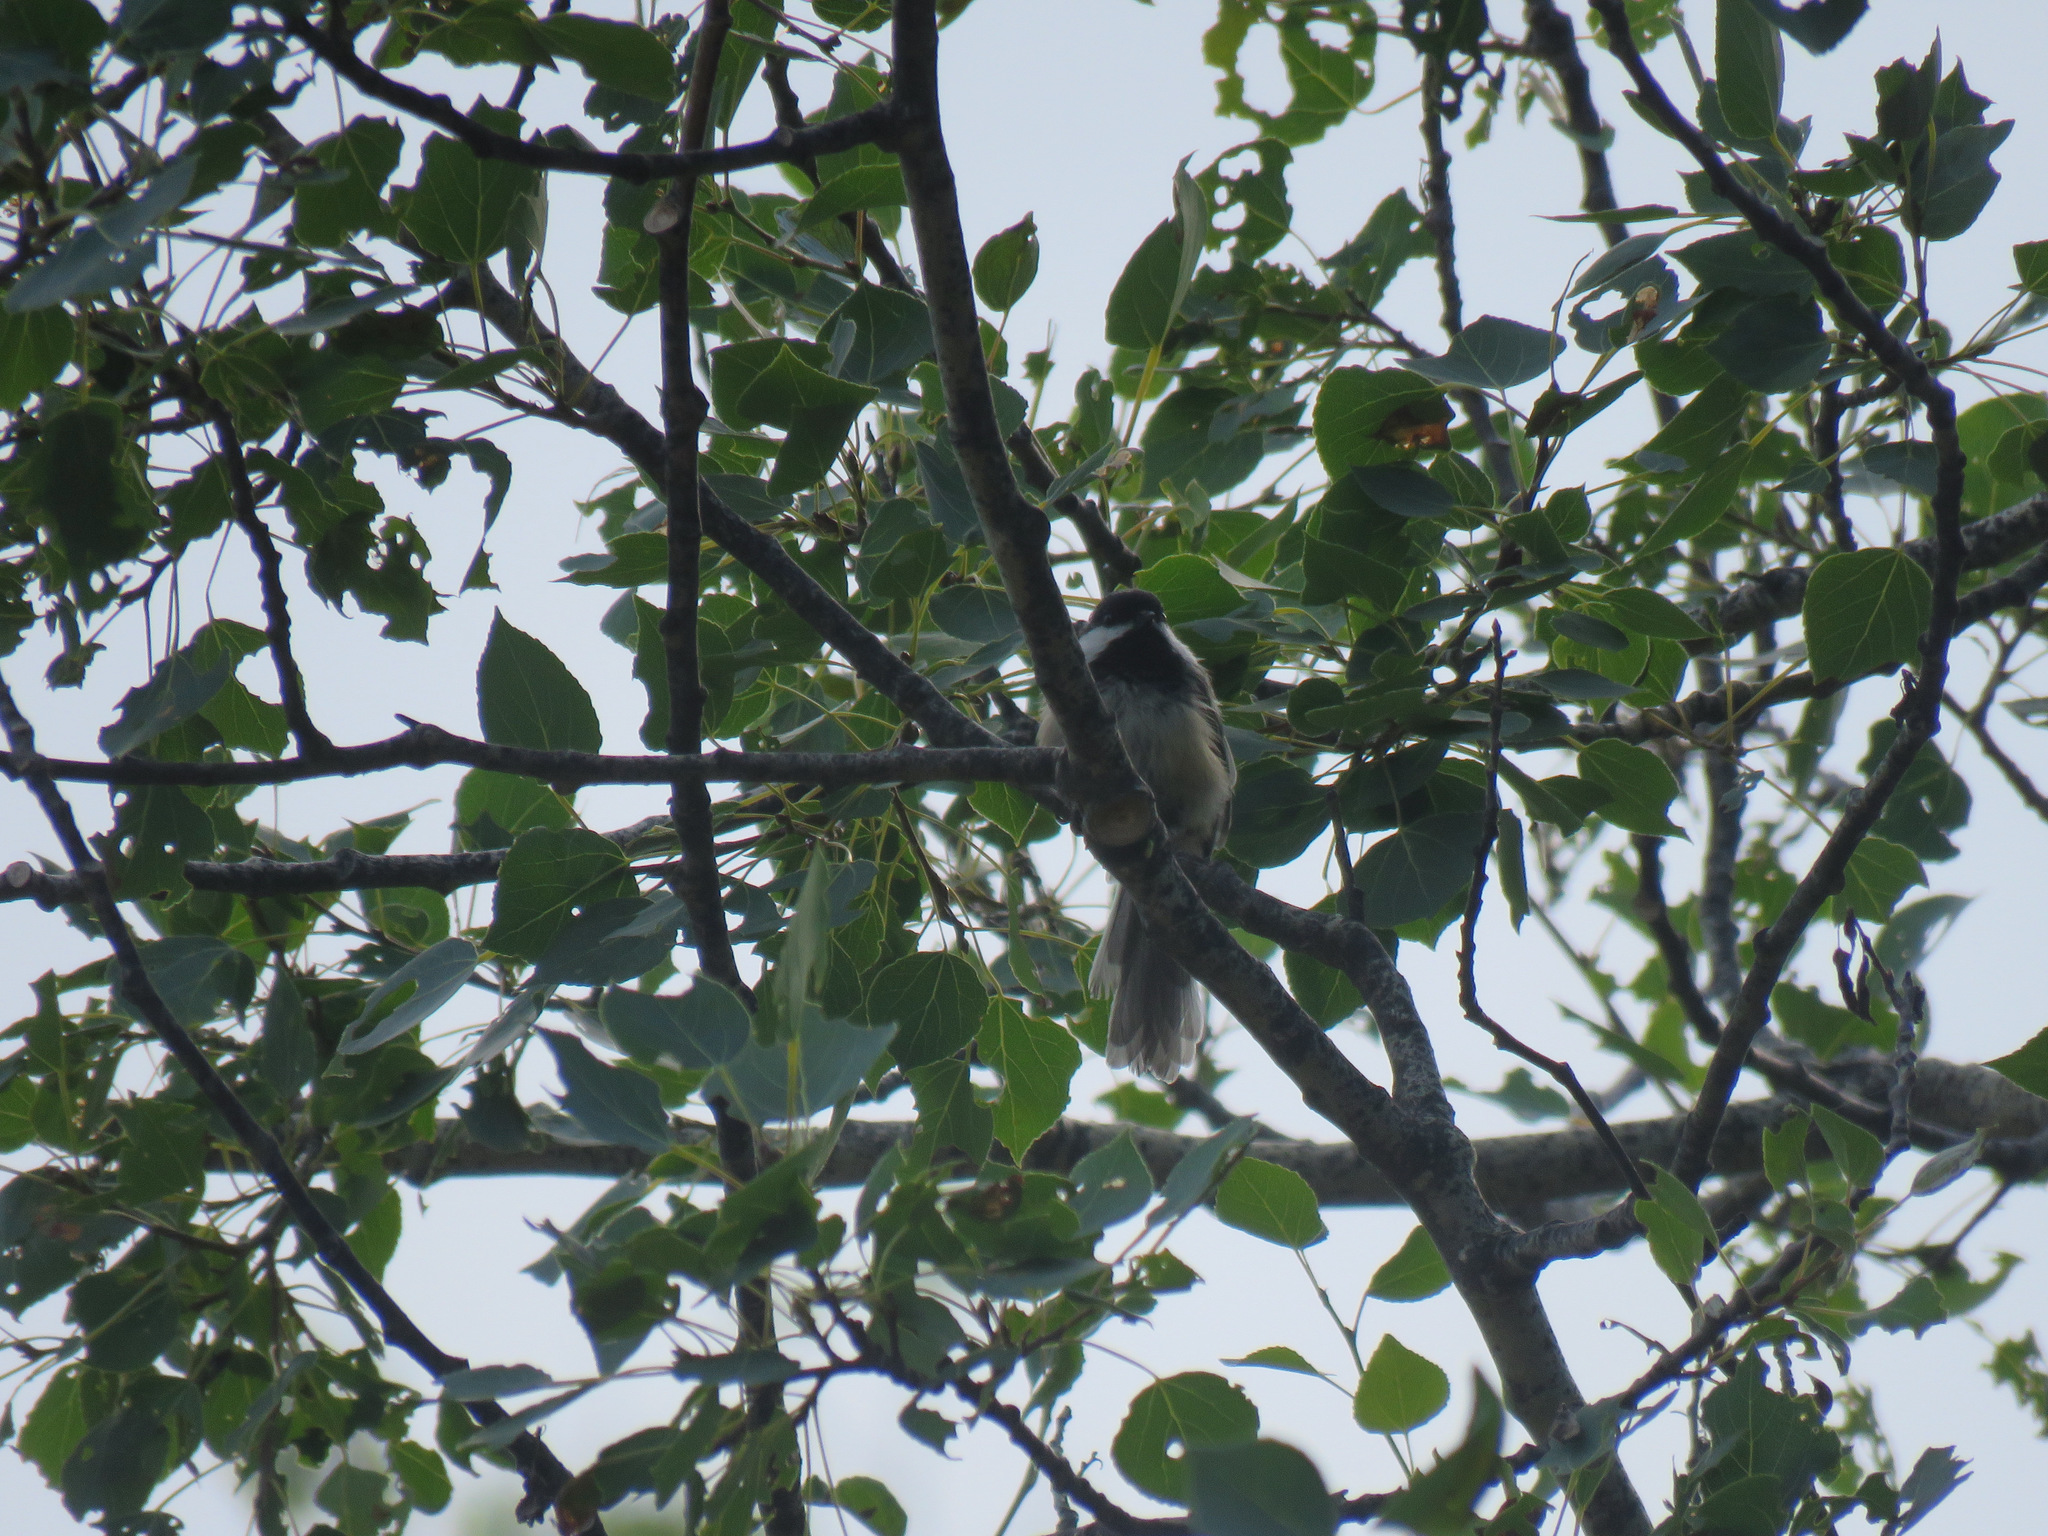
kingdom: Animalia
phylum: Chordata
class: Aves
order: Passeriformes
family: Paridae
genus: Poecile
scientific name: Poecile atricapillus
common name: Black-capped chickadee
